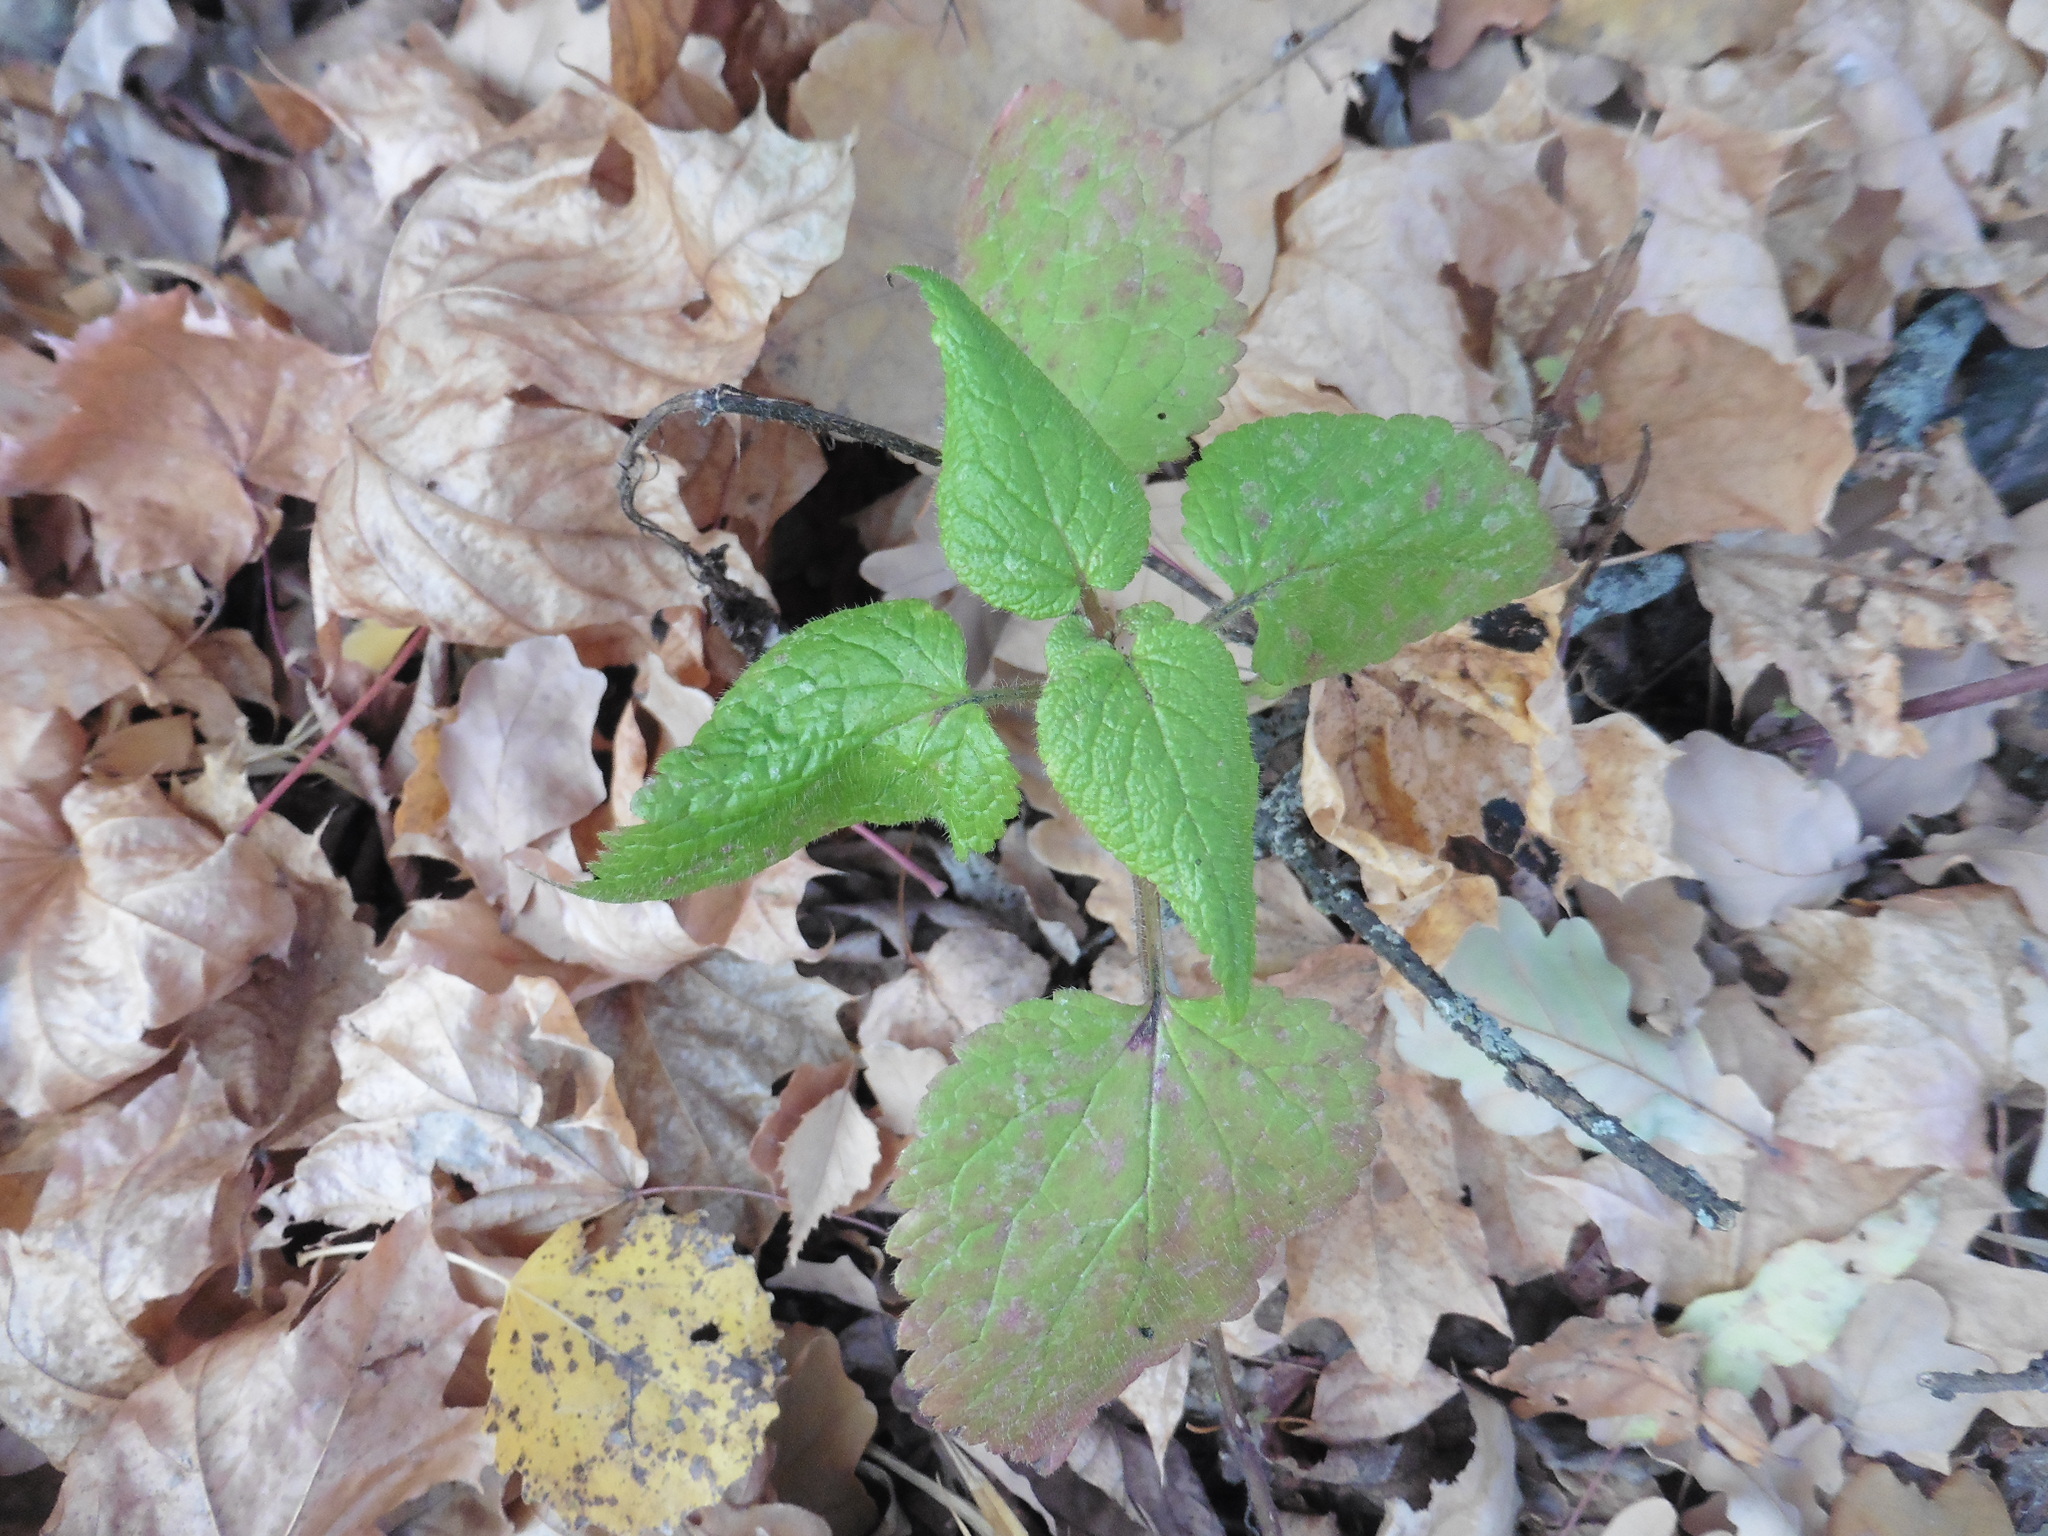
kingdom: Plantae
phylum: Tracheophyta
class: Magnoliopsida
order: Lamiales
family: Lamiaceae
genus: Lamium
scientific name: Lamium maculatum
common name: Spotted dead-nettle
